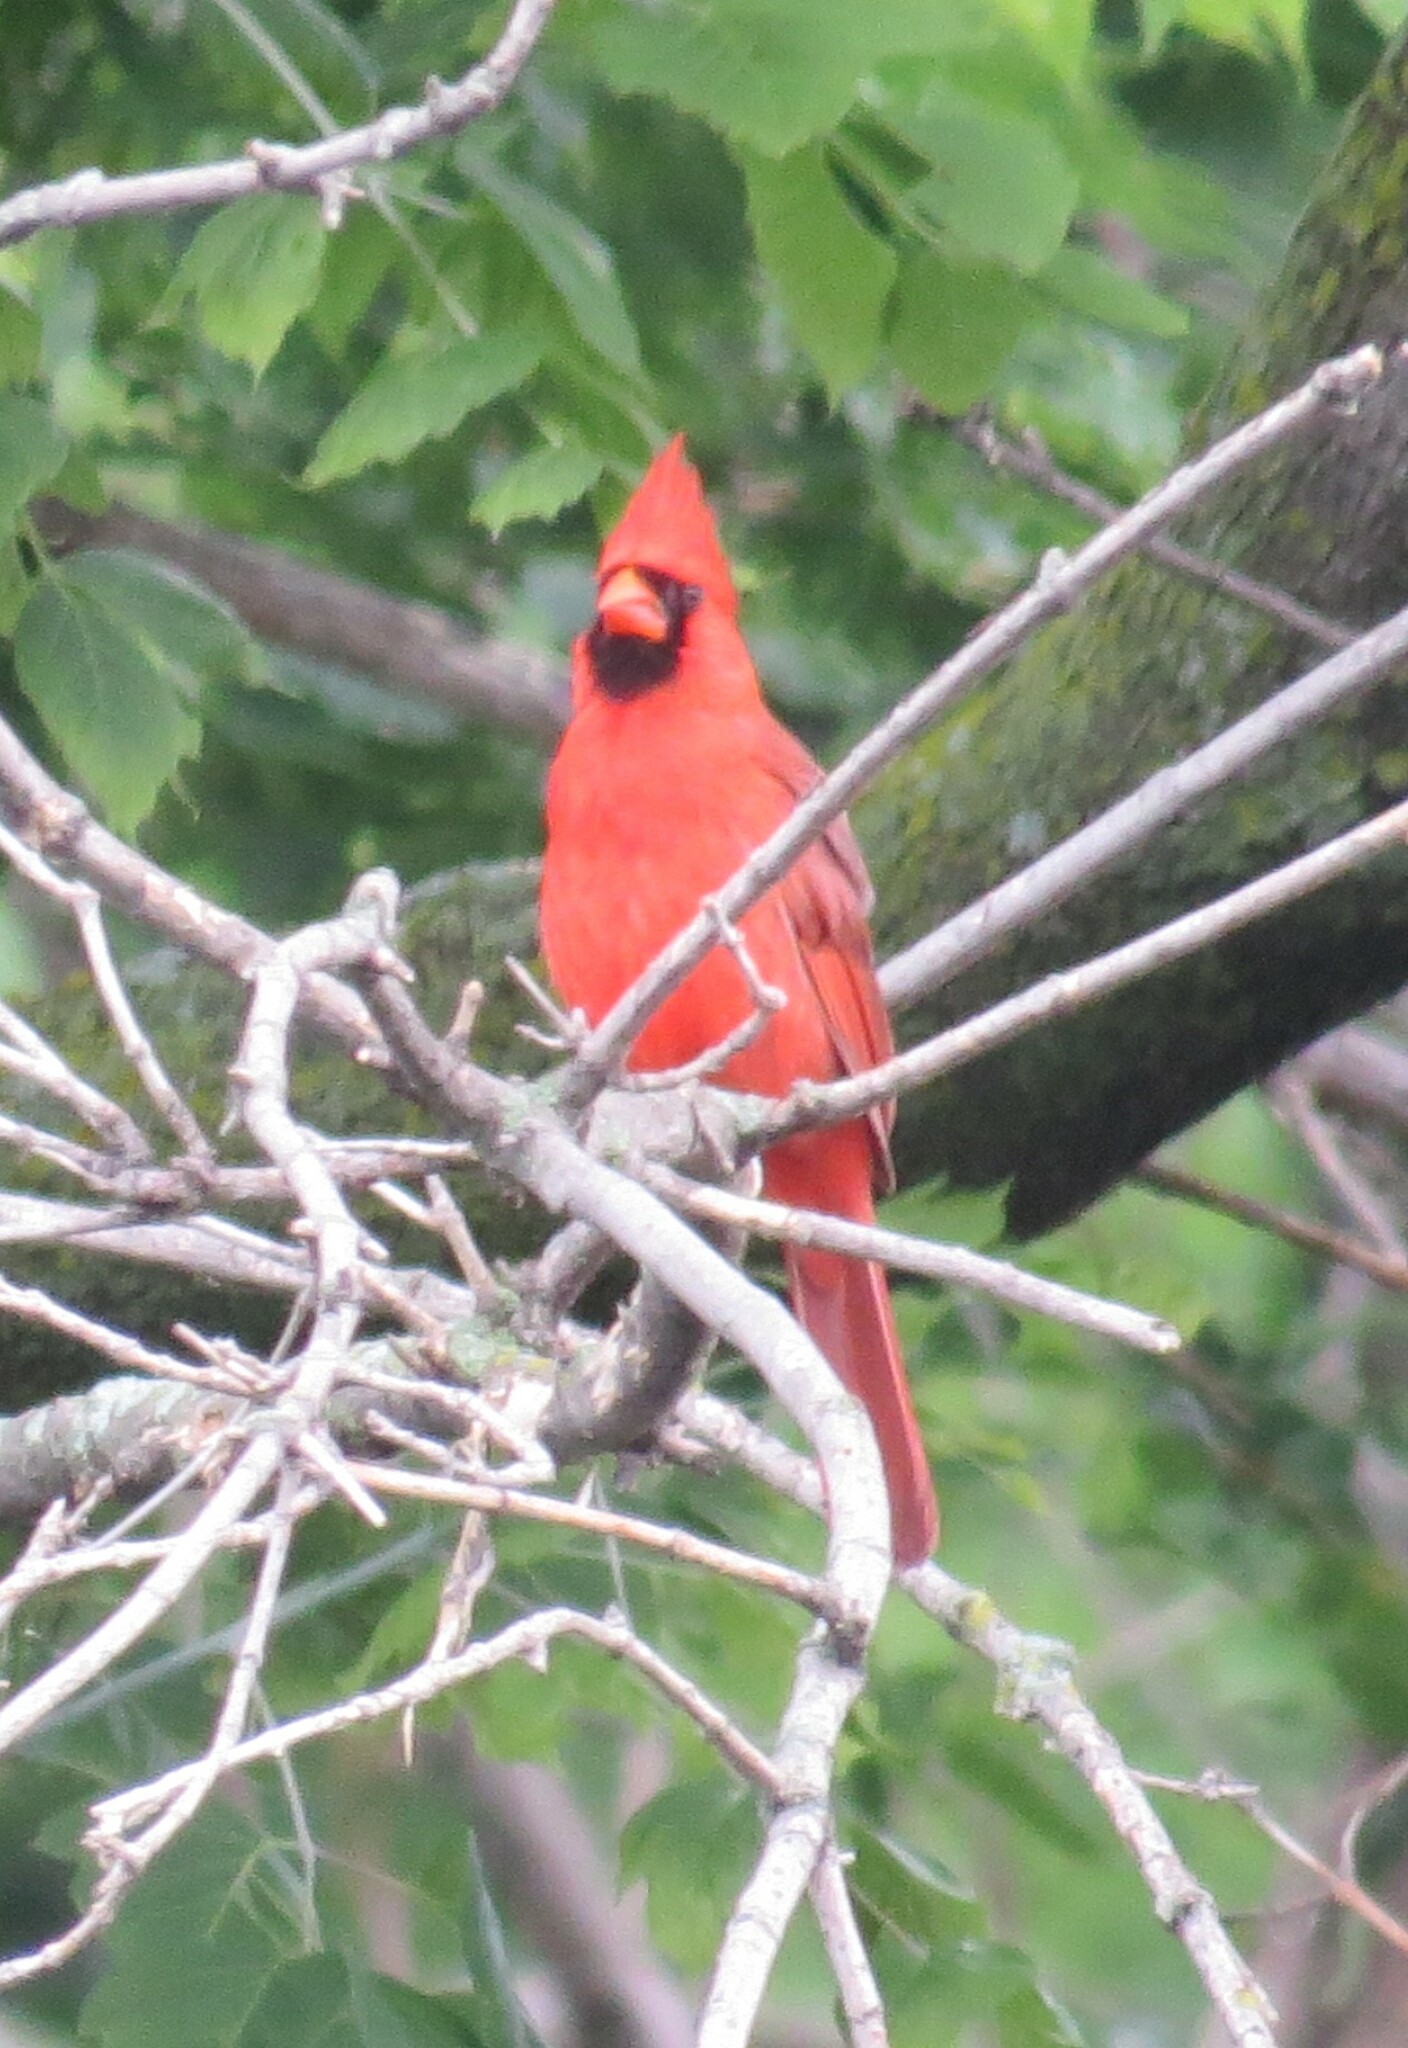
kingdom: Animalia
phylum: Chordata
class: Aves
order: Passeriformes
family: Cardinalidae
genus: Cardinalis
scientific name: Cardinalis cardinalis
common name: Northern cardinal
